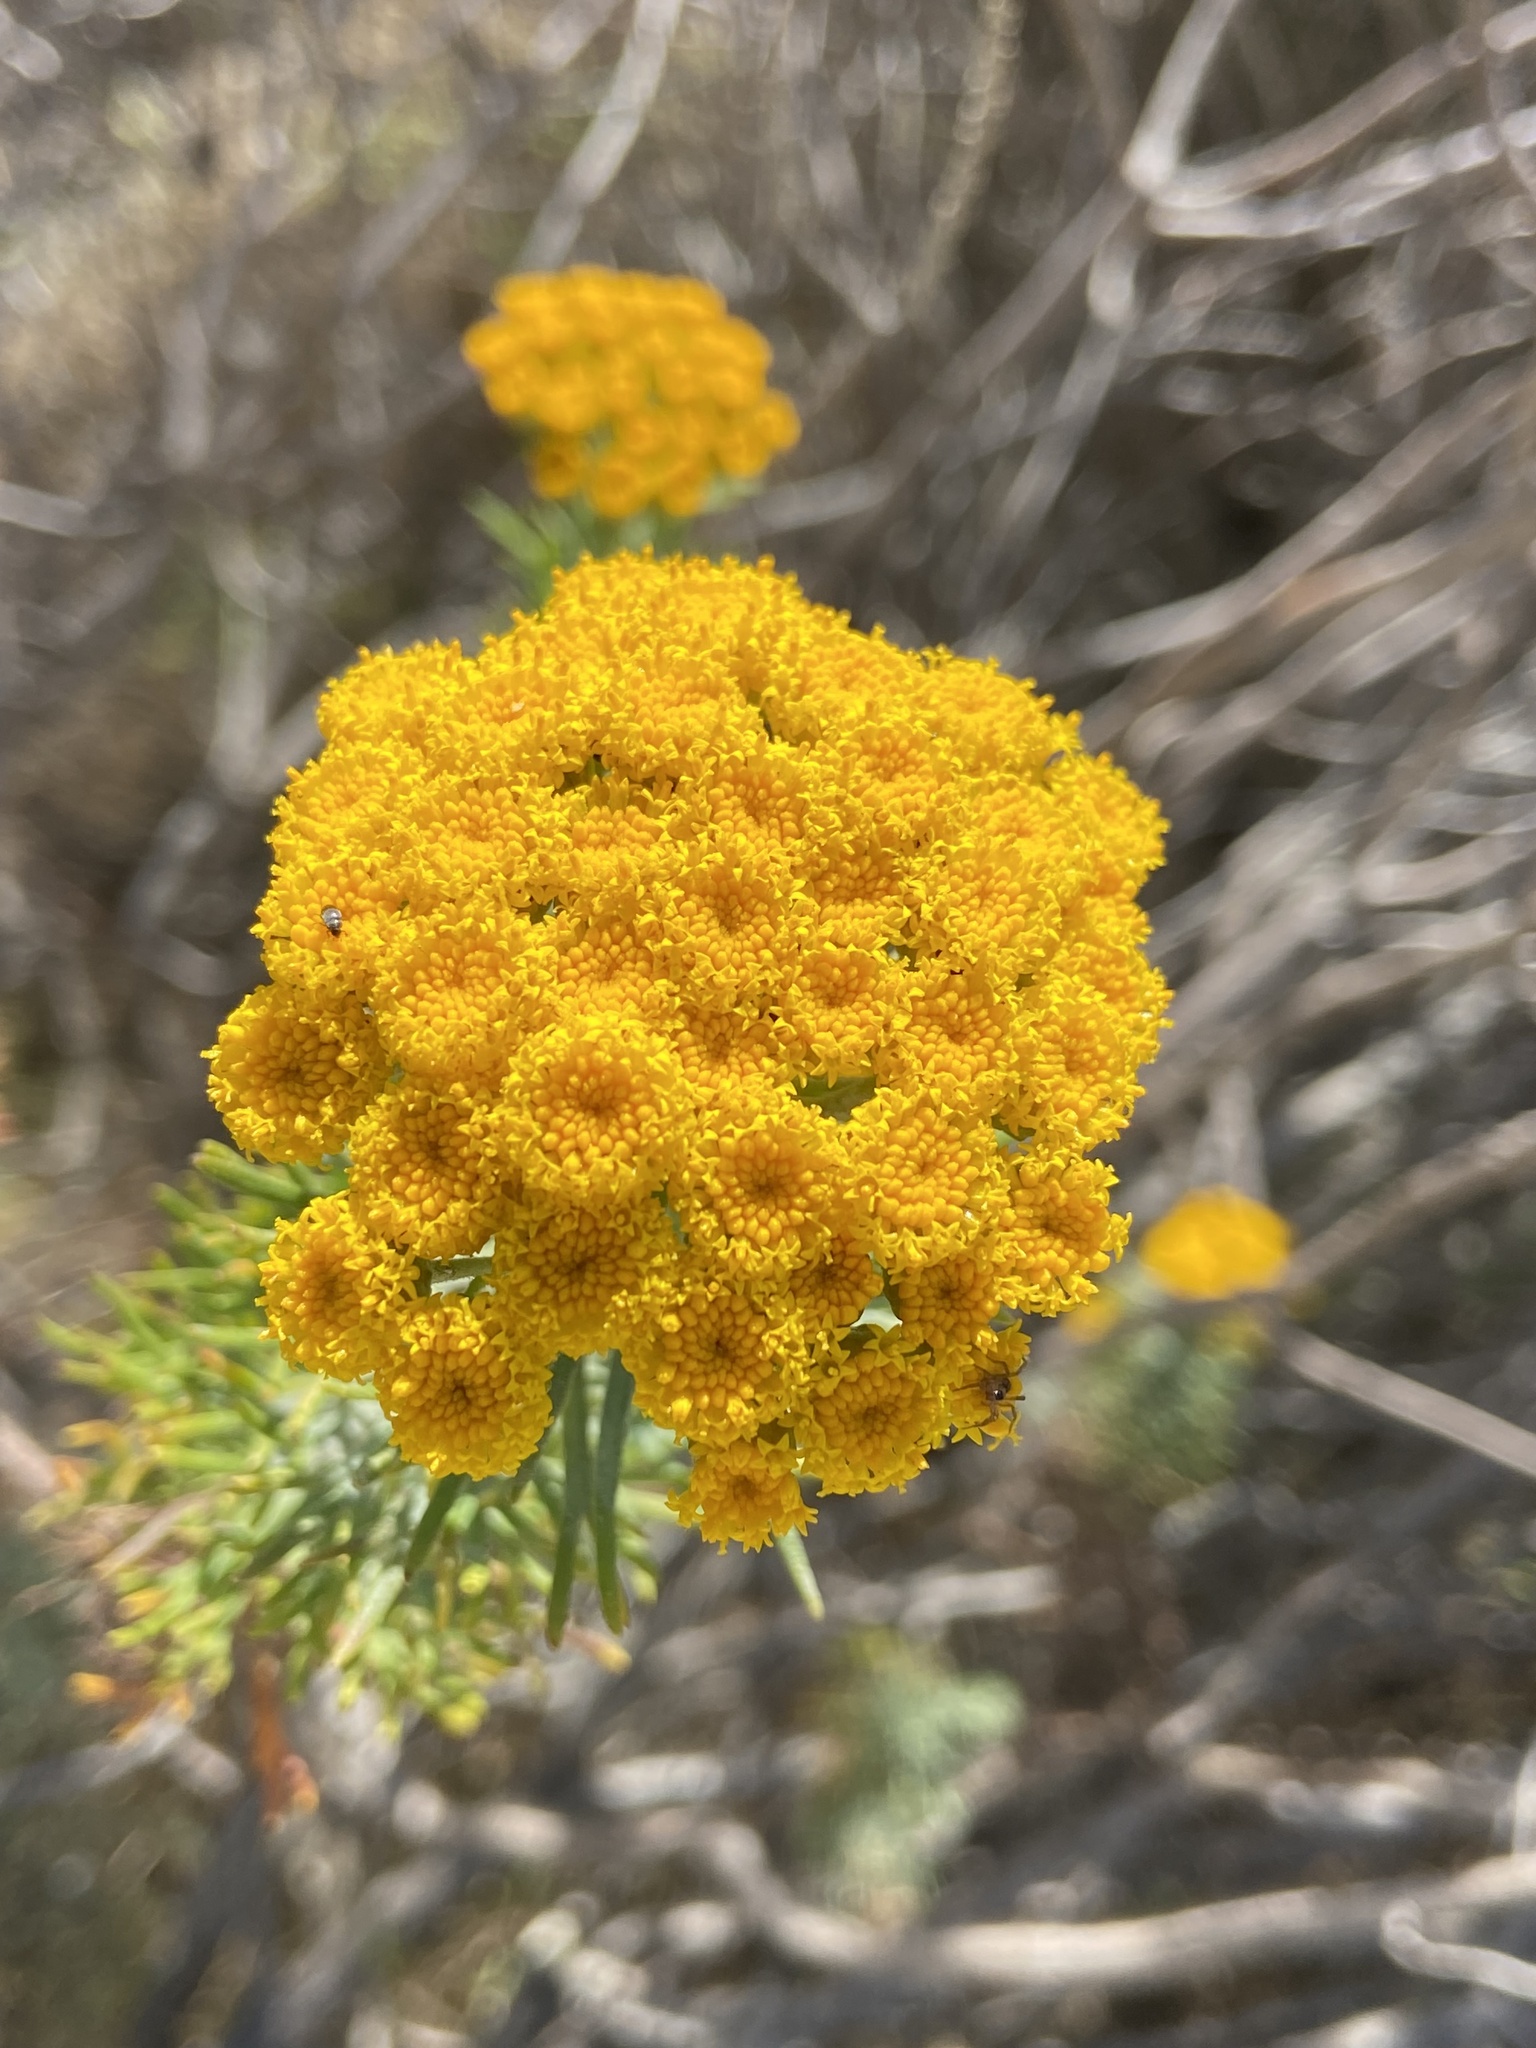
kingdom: Plantae
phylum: Tracheophyta
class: Magnoliopsida
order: Asterales
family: Asteraceae
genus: Athanasia
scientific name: Athanasia trifurcata
